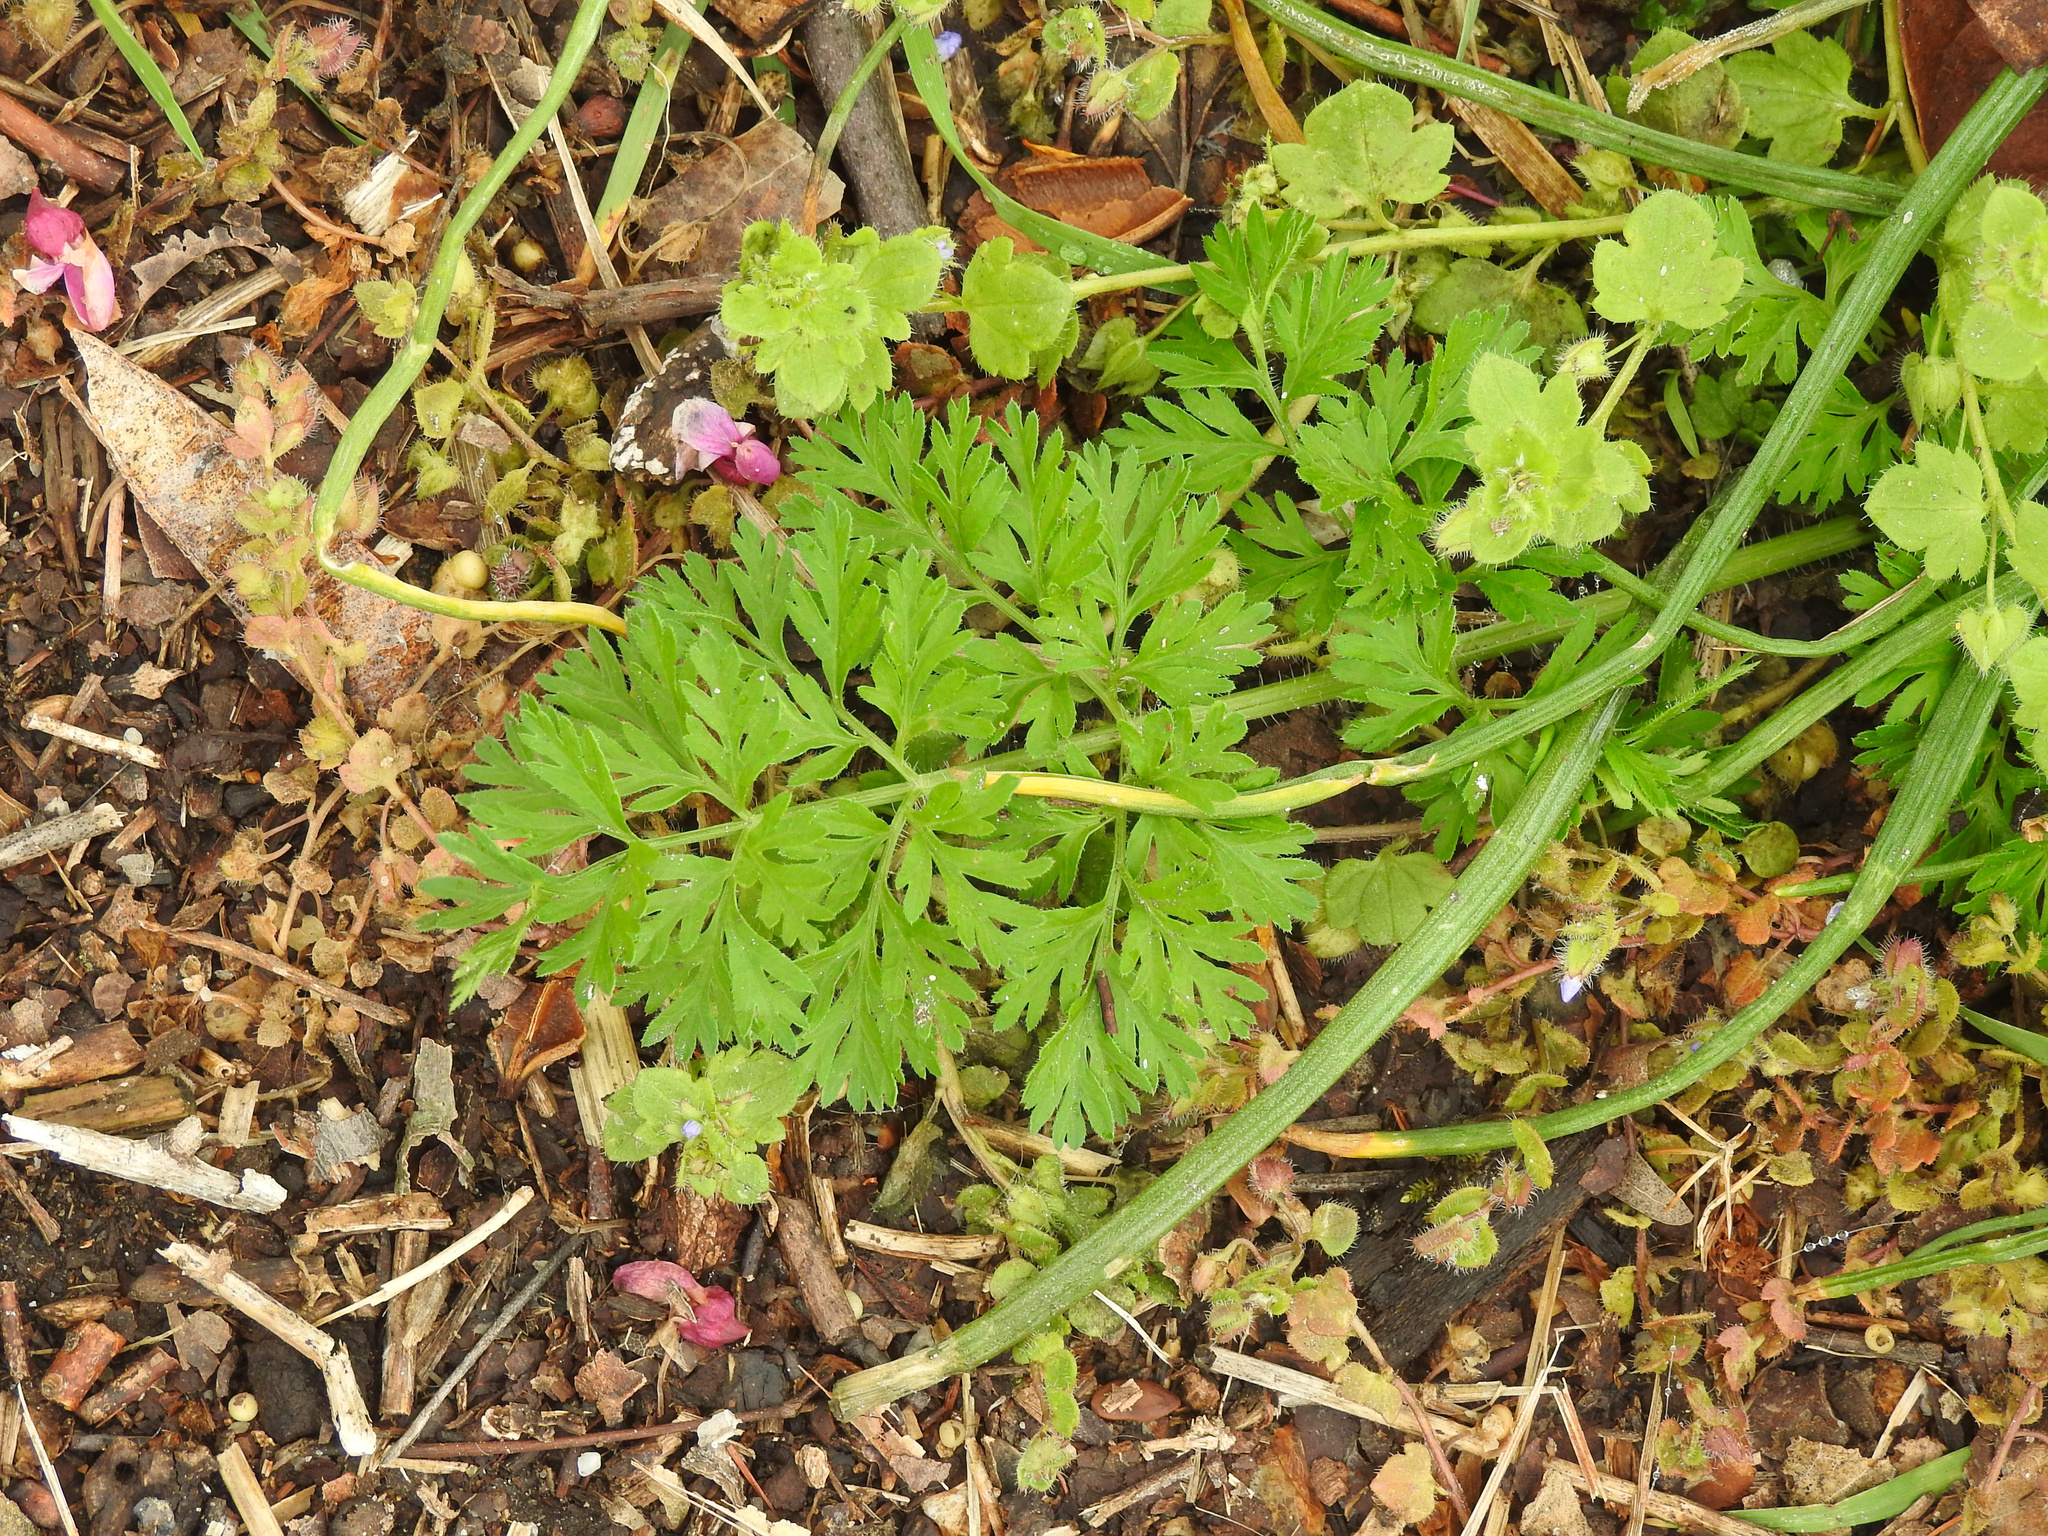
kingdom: Plantae
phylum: Tracheophyta
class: Magnoliopsida
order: Apiales
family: Apiaceae
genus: Daucus
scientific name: Daucus carota
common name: Wild carrot
